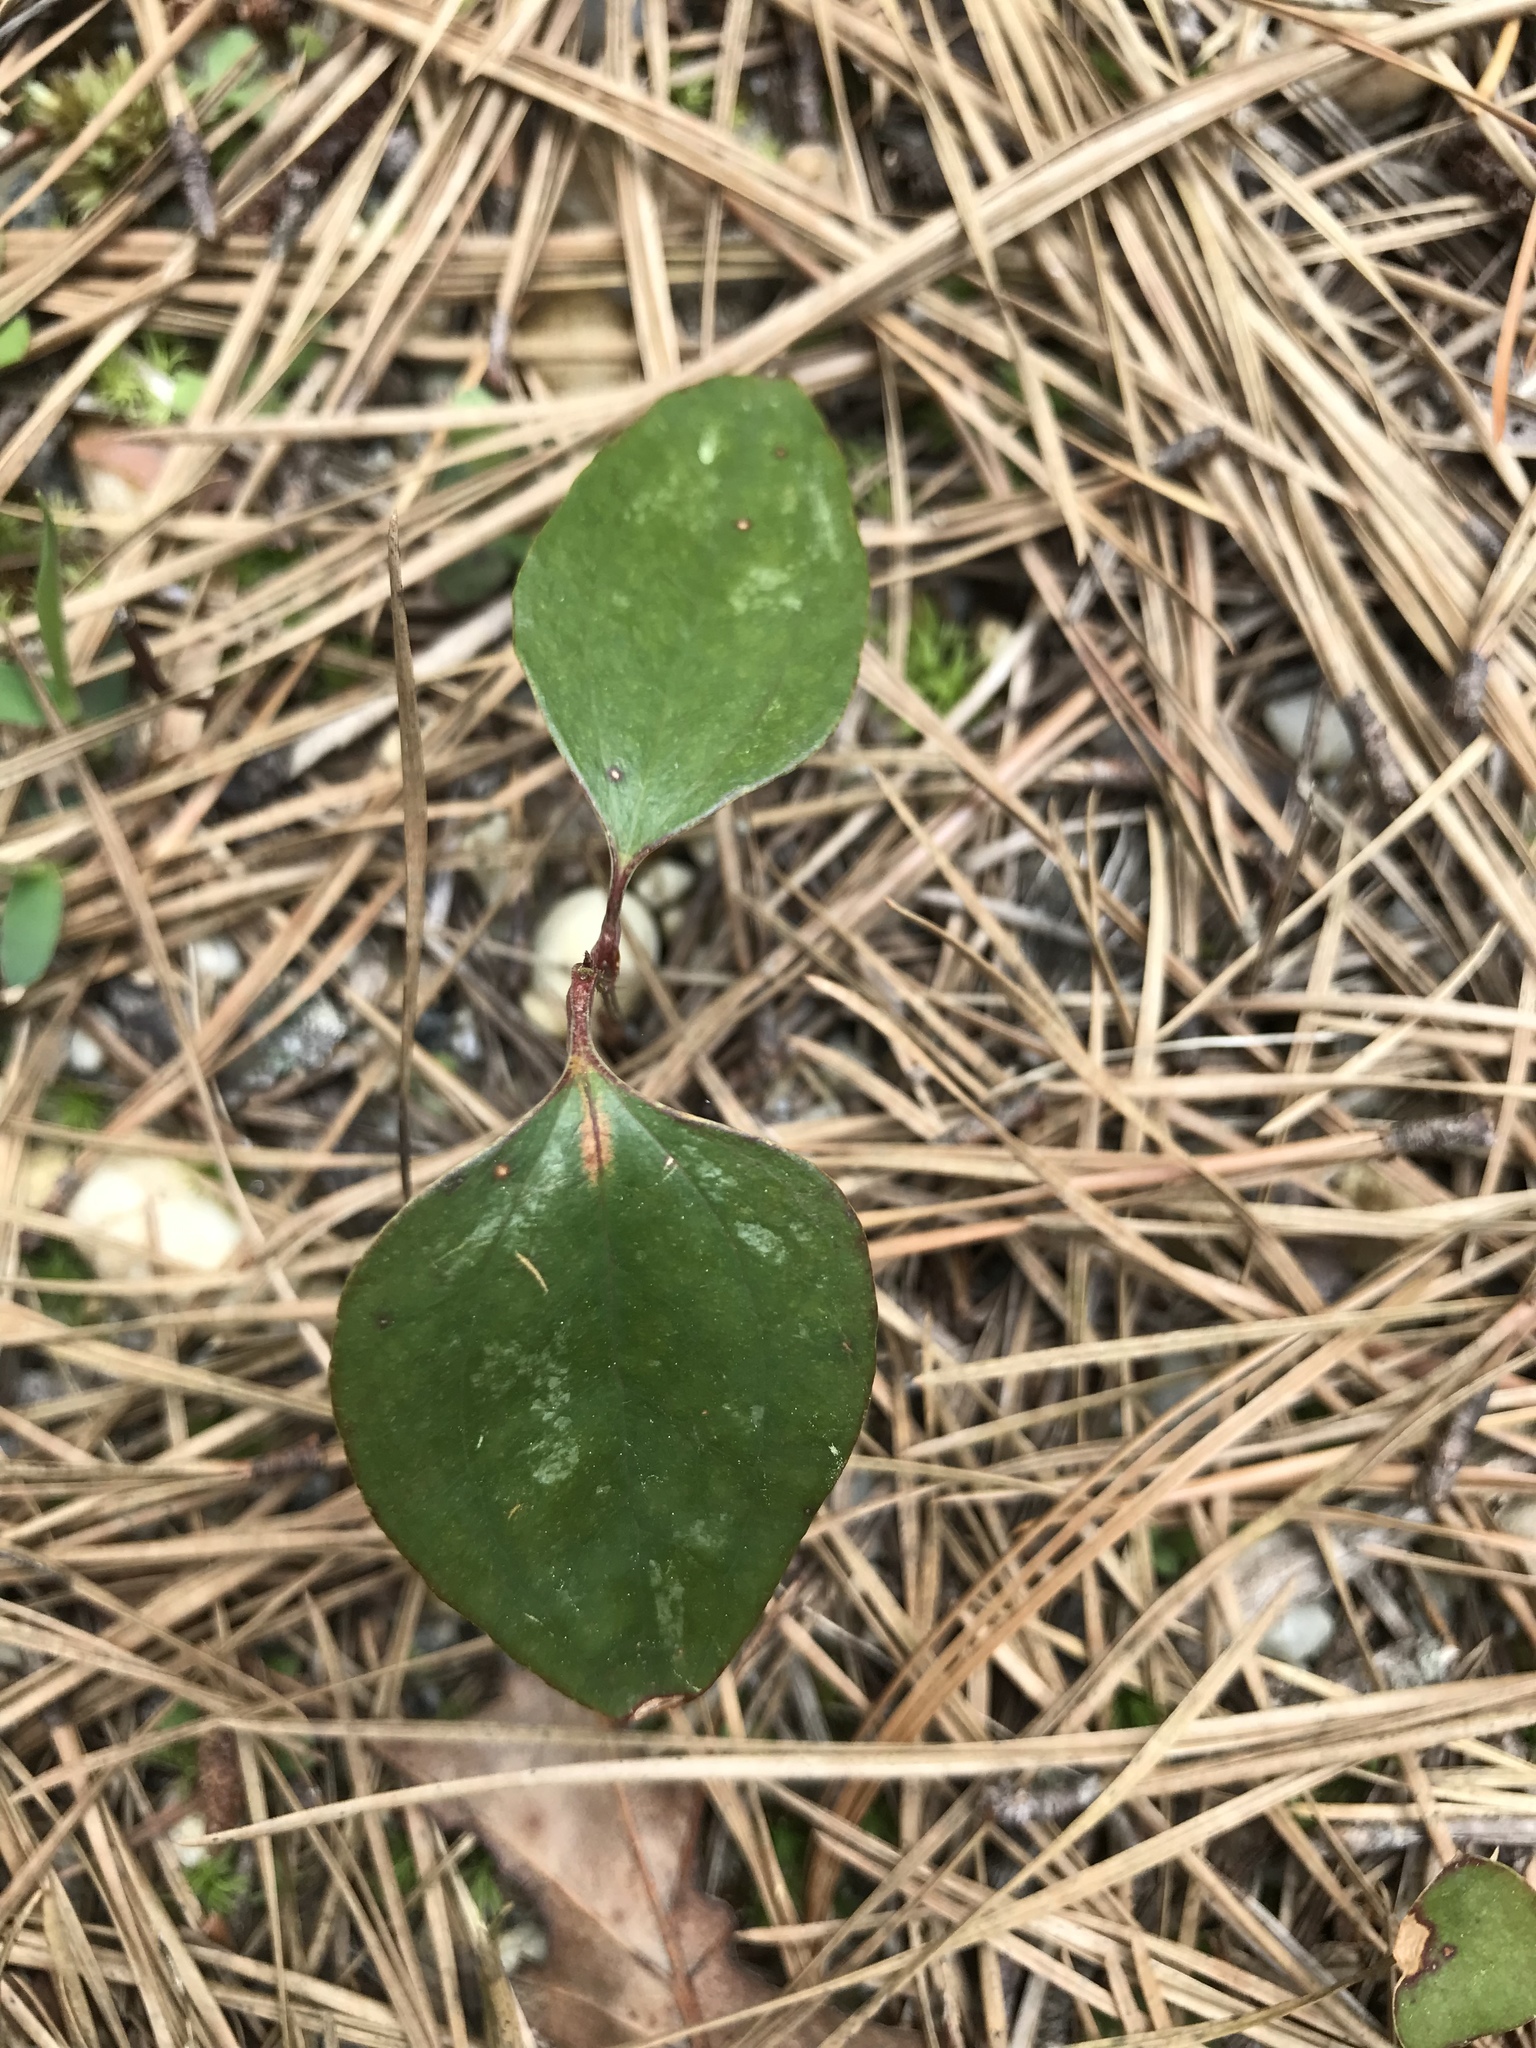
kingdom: Plantae
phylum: Tracheophyta
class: Liliopsida
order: Liliales
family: Smilacaceae
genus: Smilax
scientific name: Smilax glauca
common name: Cat greenbrier
